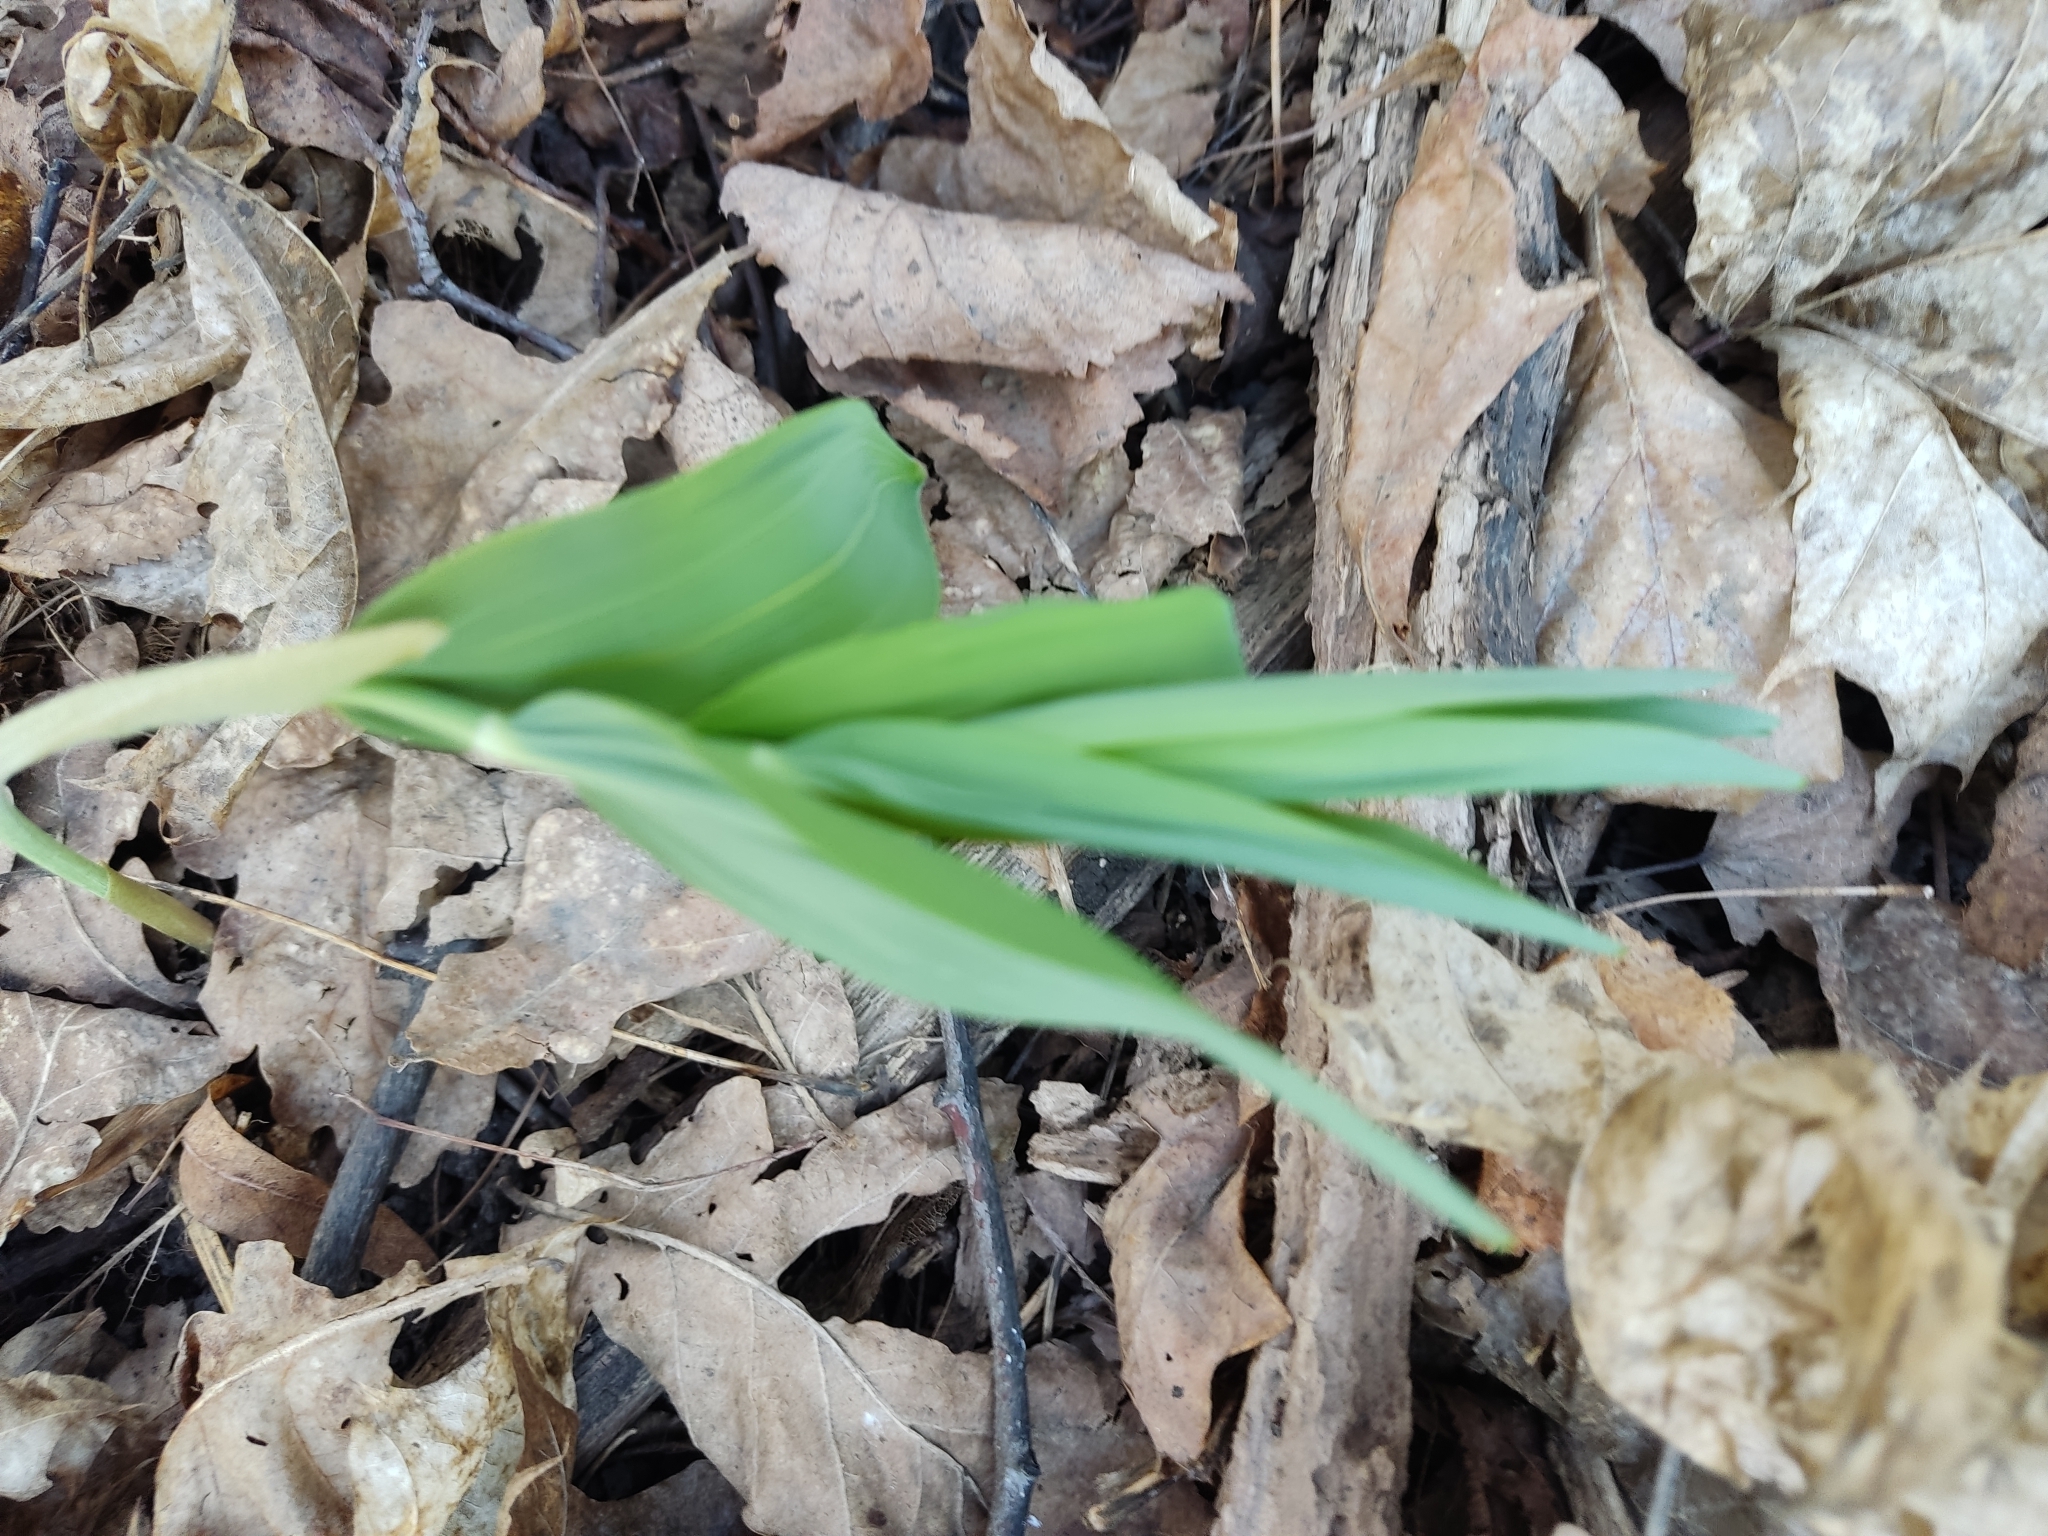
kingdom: Plantae
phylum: Tracheophyta
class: Liliopsida
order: Asparagales
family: Asparagaceae
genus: Polygonatum
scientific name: Polygonatum multiflorum
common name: Solomon's-seal
